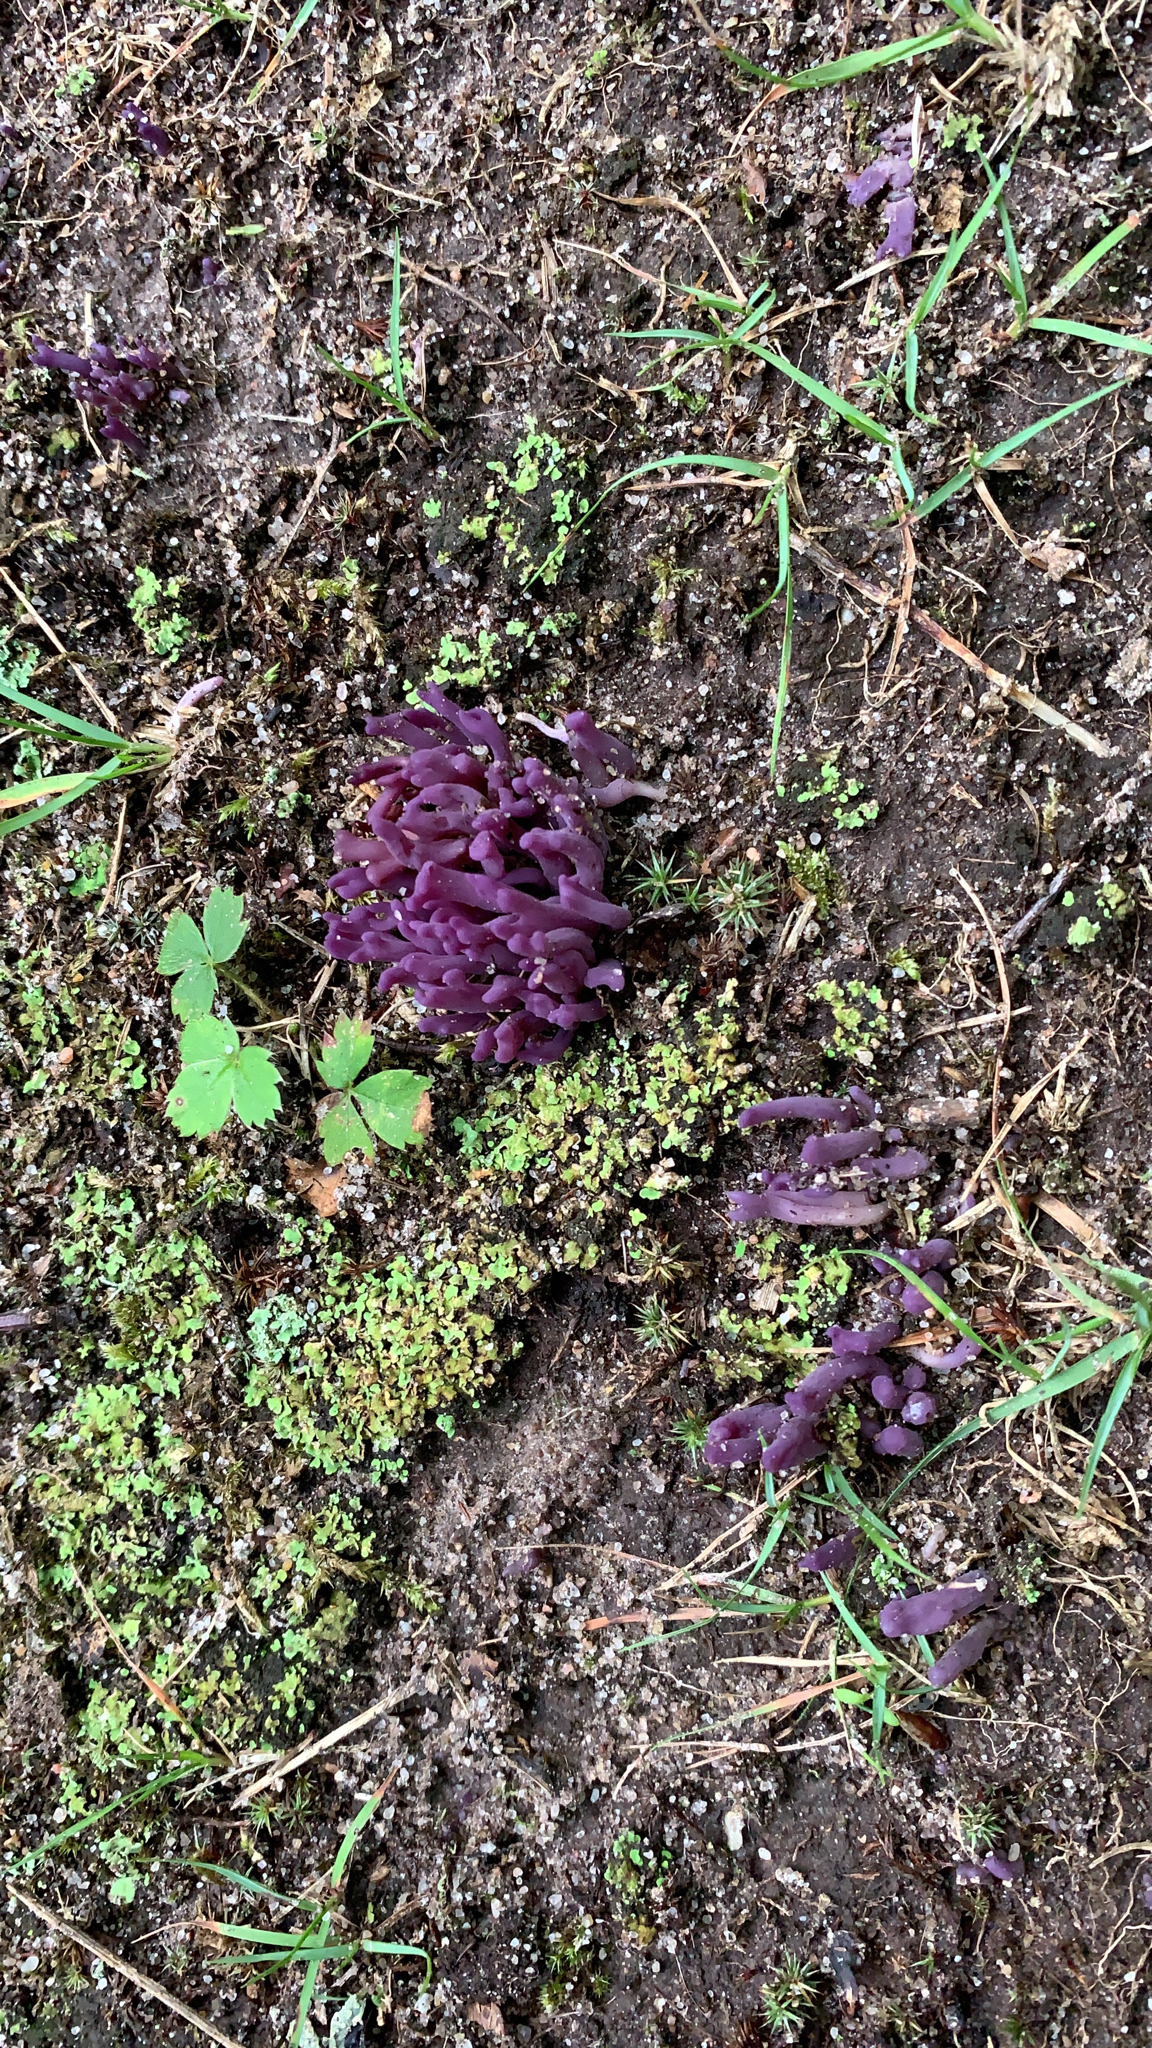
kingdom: Fungi
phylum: Basidiomycota
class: Agaricomycetes
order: Agaricales
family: Clavariaceae
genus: Clavaria
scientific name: Clavaria zollingeri
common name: Violet coral
